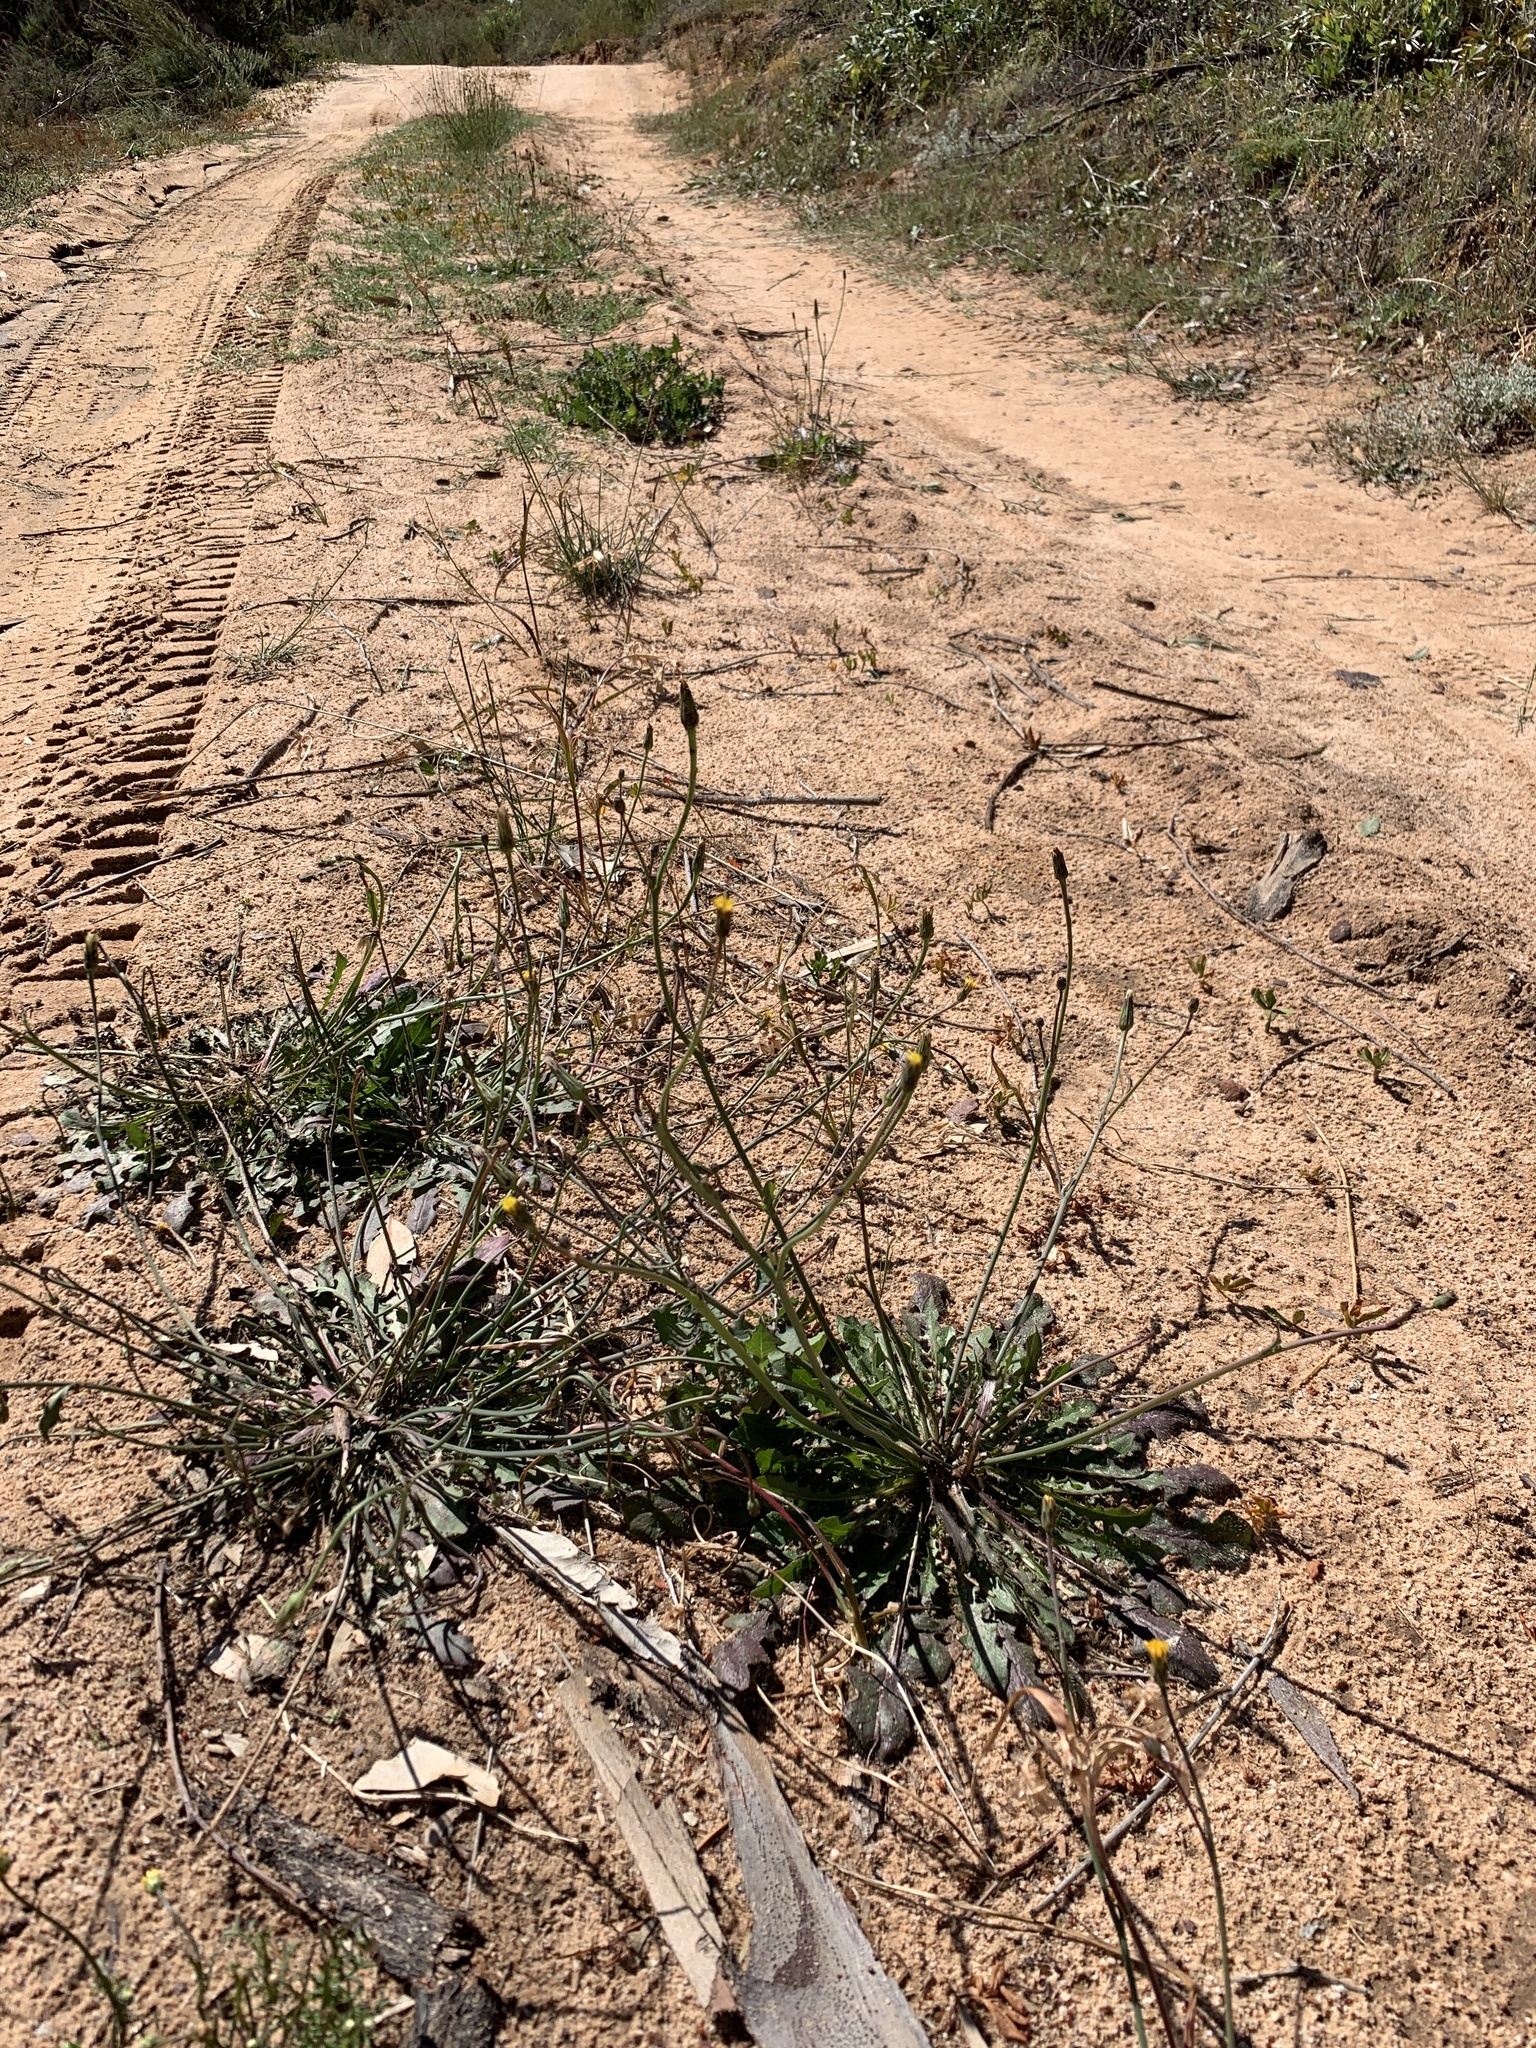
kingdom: Plantae
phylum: Tracheophyta
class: Magnoliopsida
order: Asterales
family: Asteraceae
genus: Hypochaeris
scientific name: Hypochaeris radicata
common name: Flatweed
